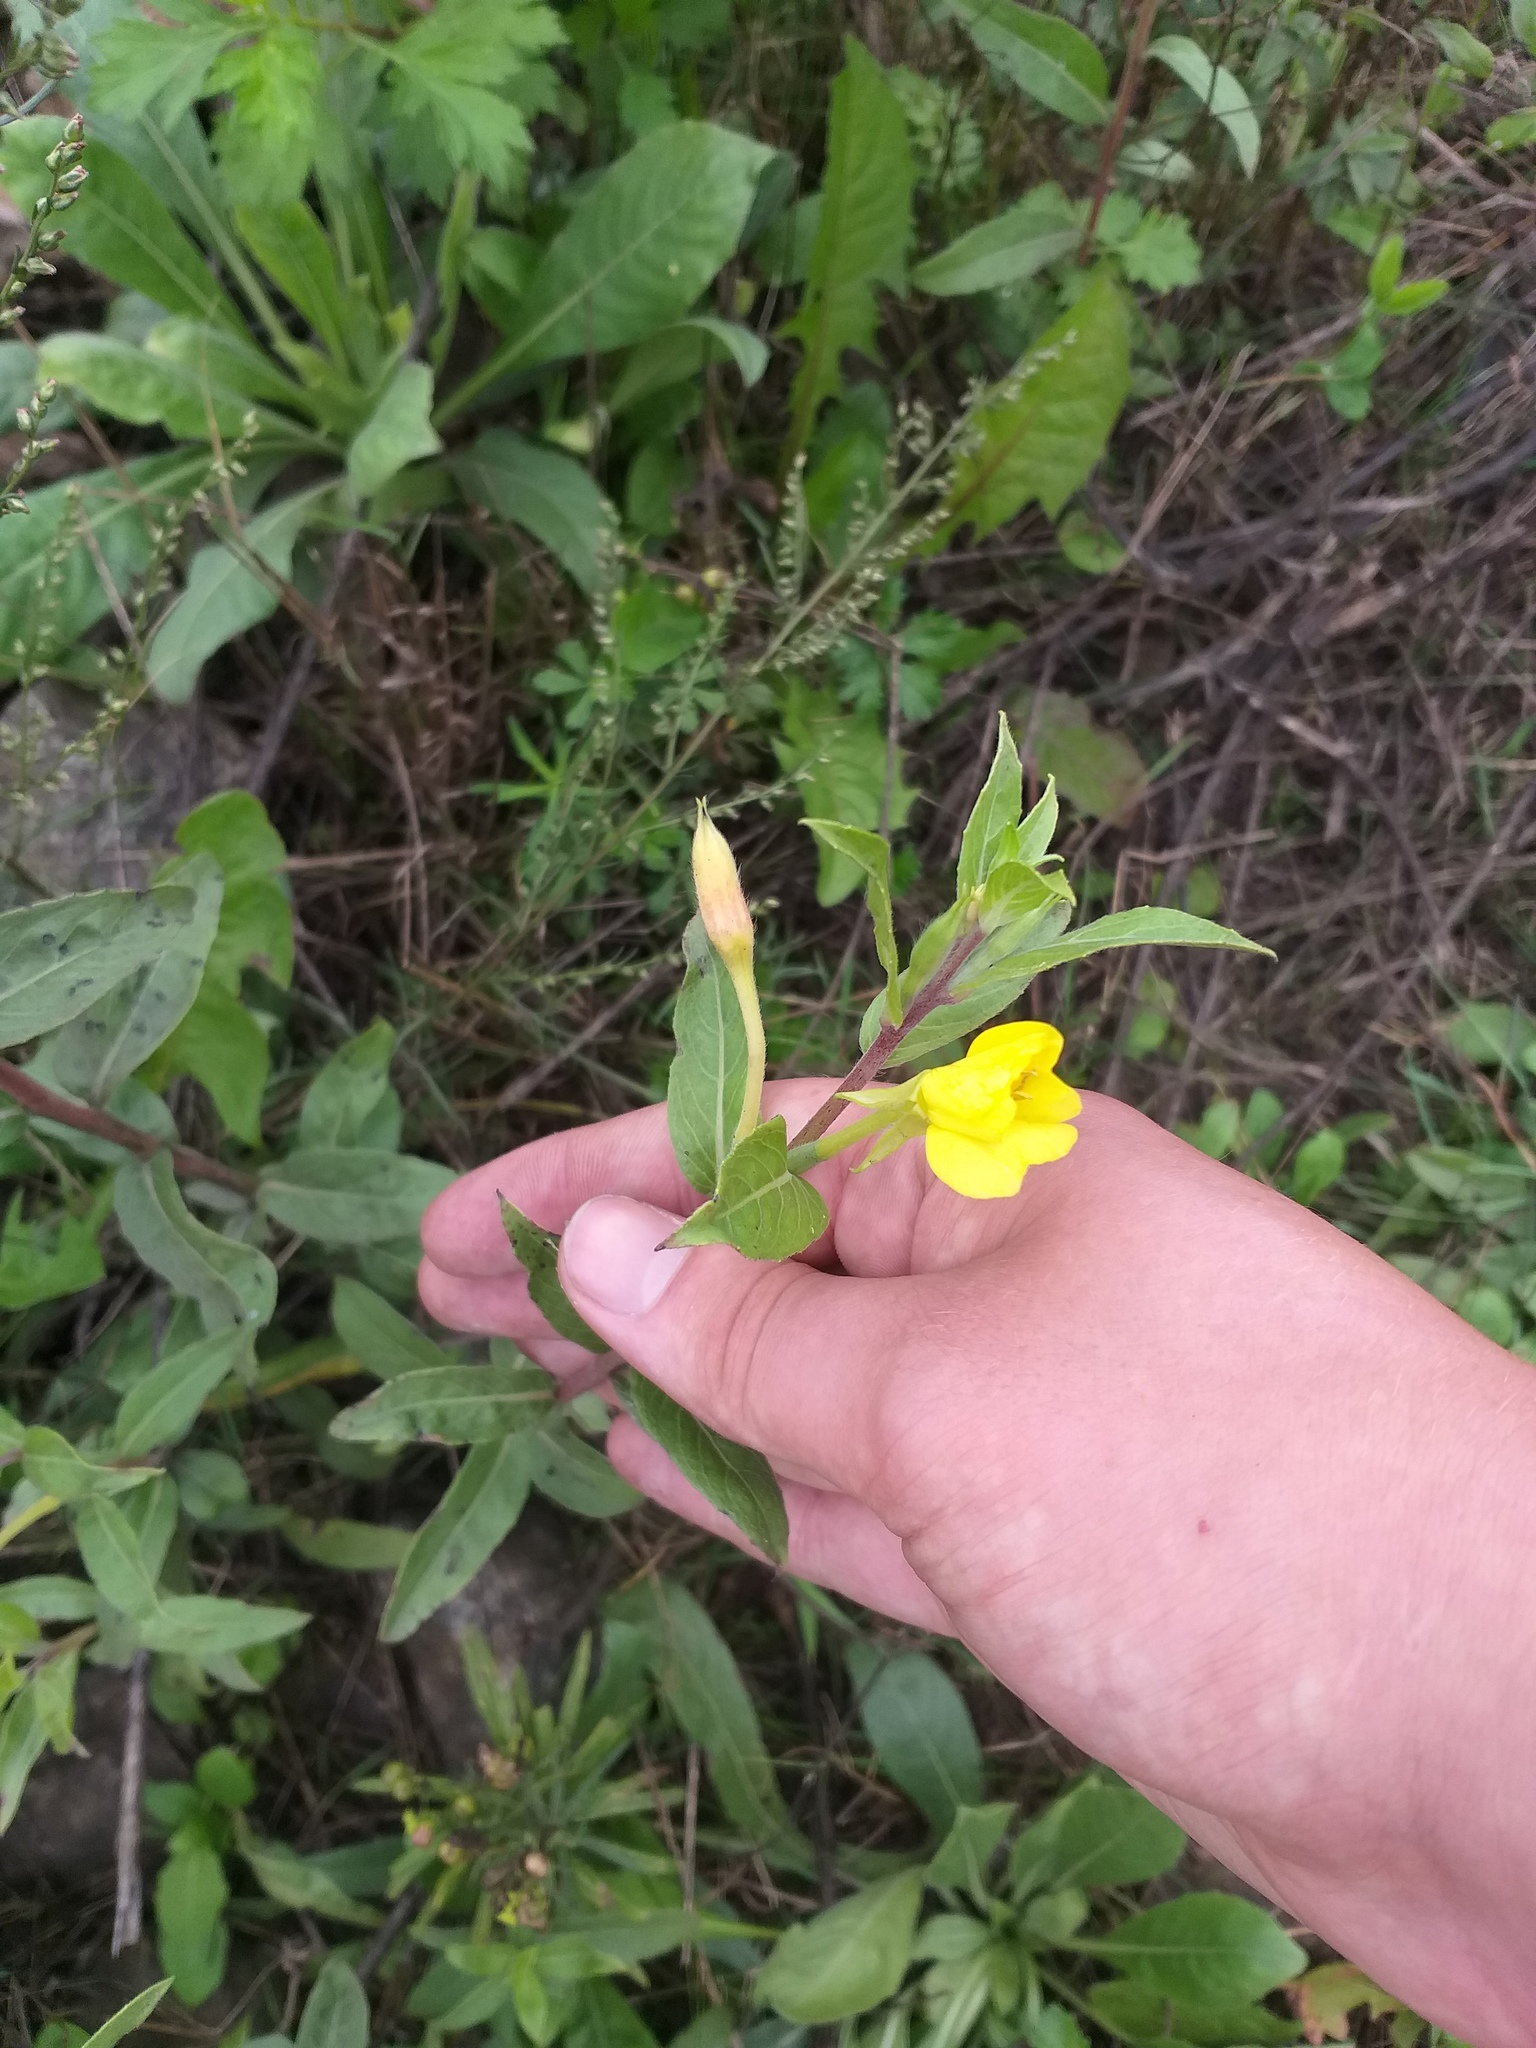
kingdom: Plantae
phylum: Tracheophyta
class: Magnoliopsida
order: Myrtales
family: Onagraceae
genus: Oenothera
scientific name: Oenothera villosa
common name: Hairy evening-primrose
